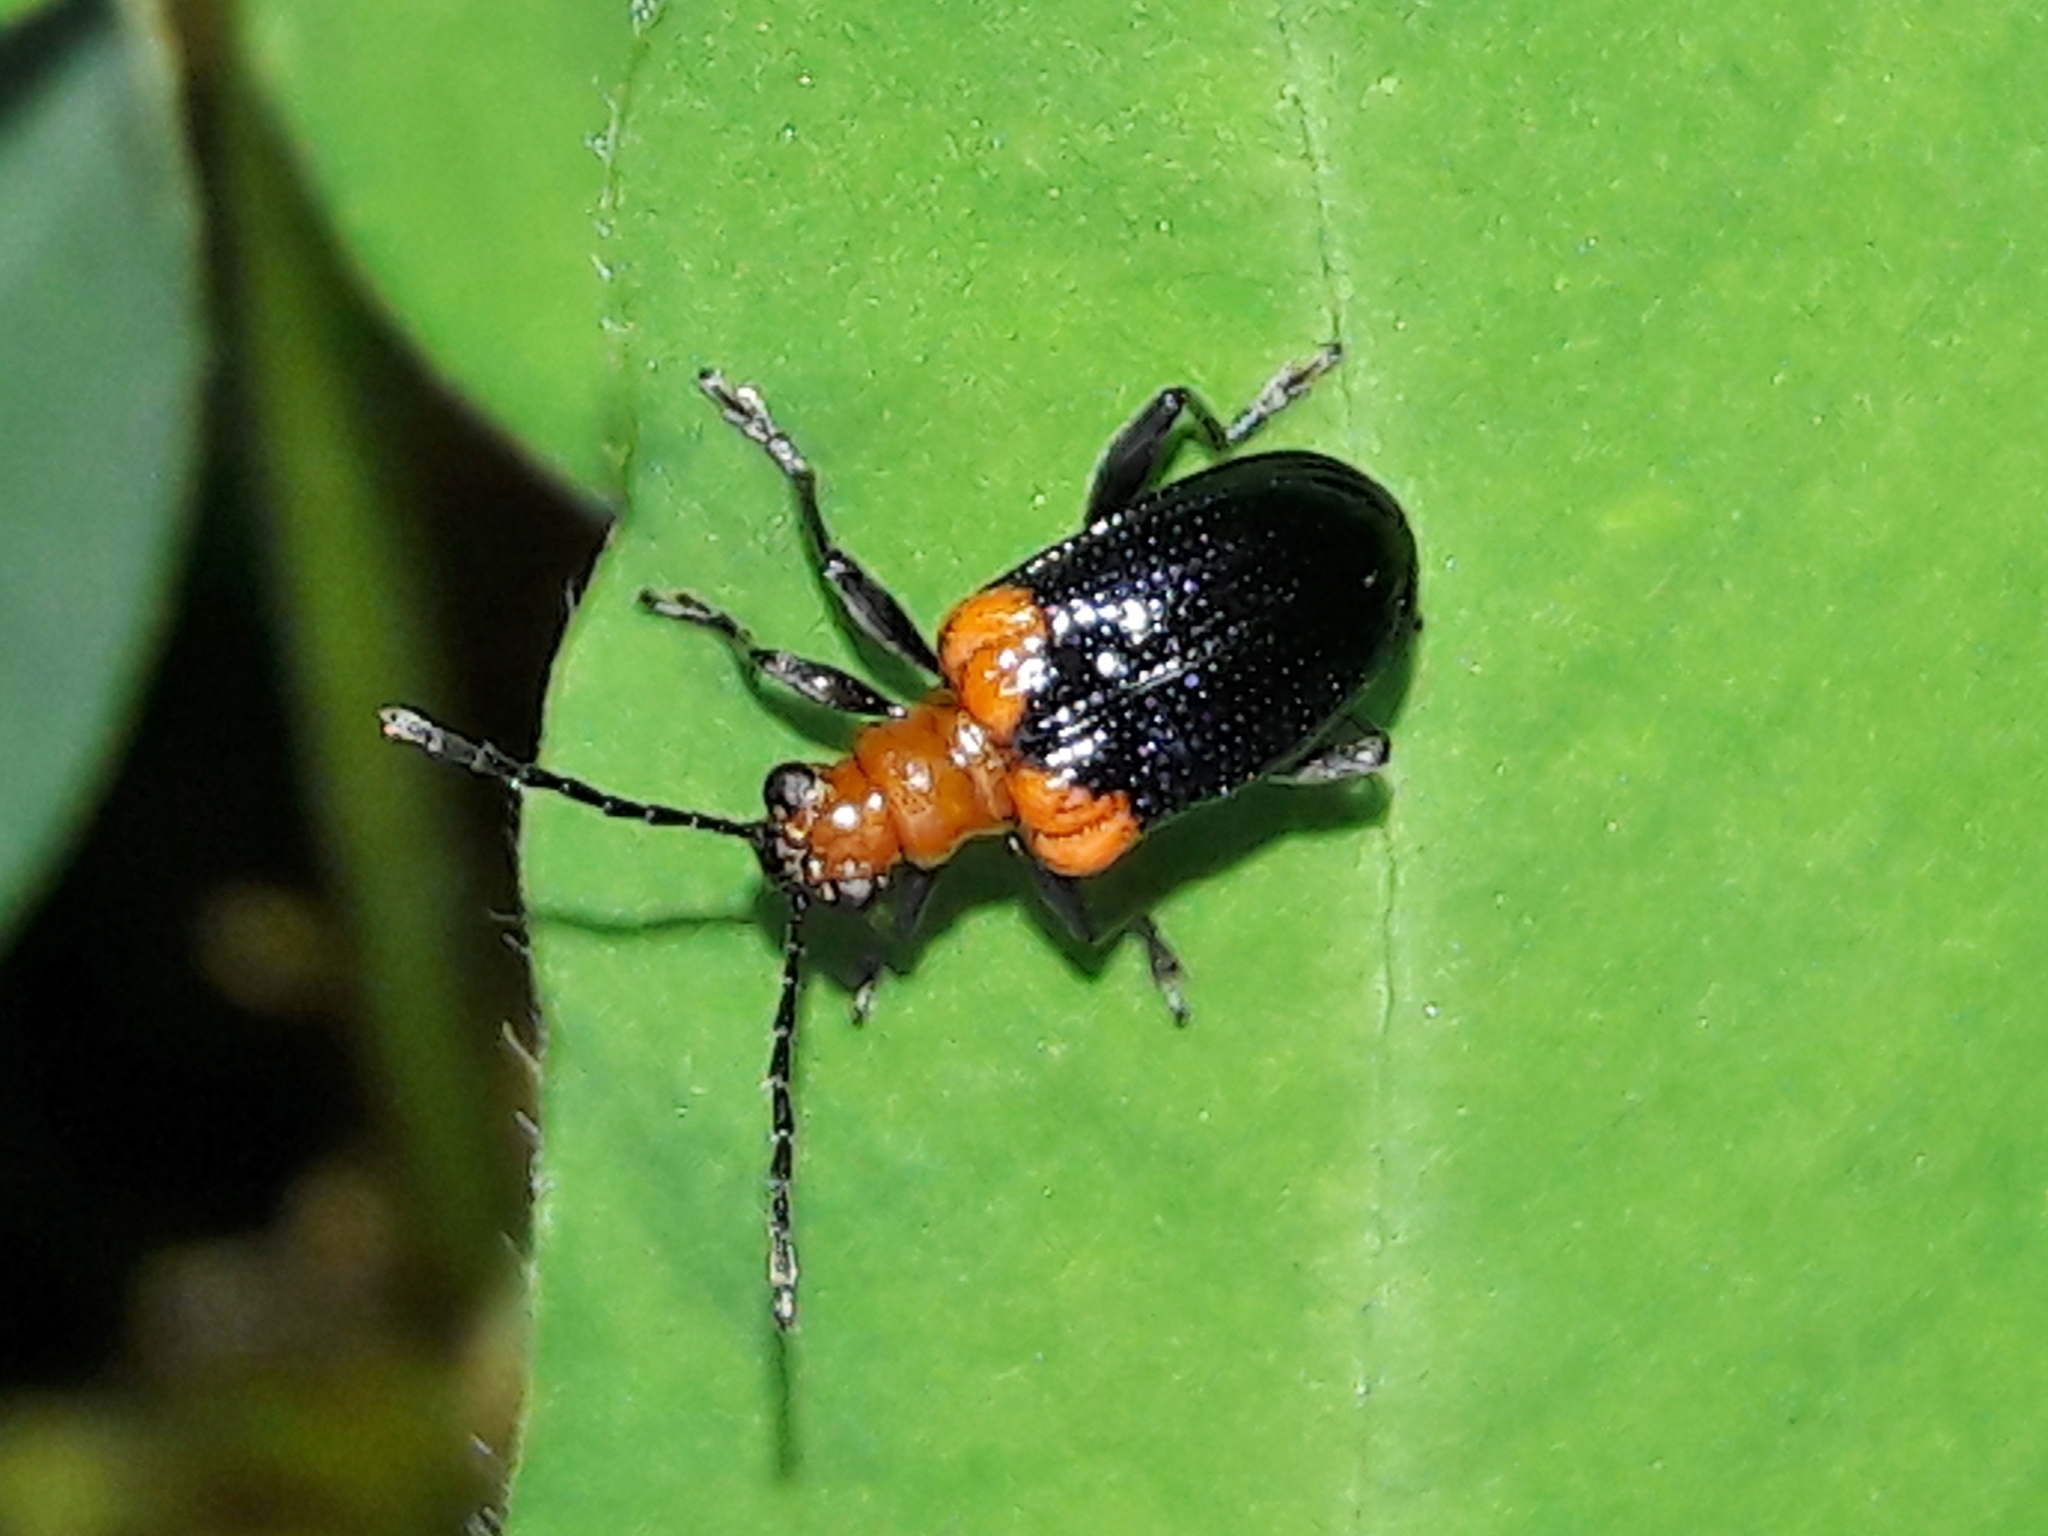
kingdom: Animalia
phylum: Arthropoda
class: Insecta
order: Coleoptera
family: Chrysomelidae
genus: Neolema
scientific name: Neolema
